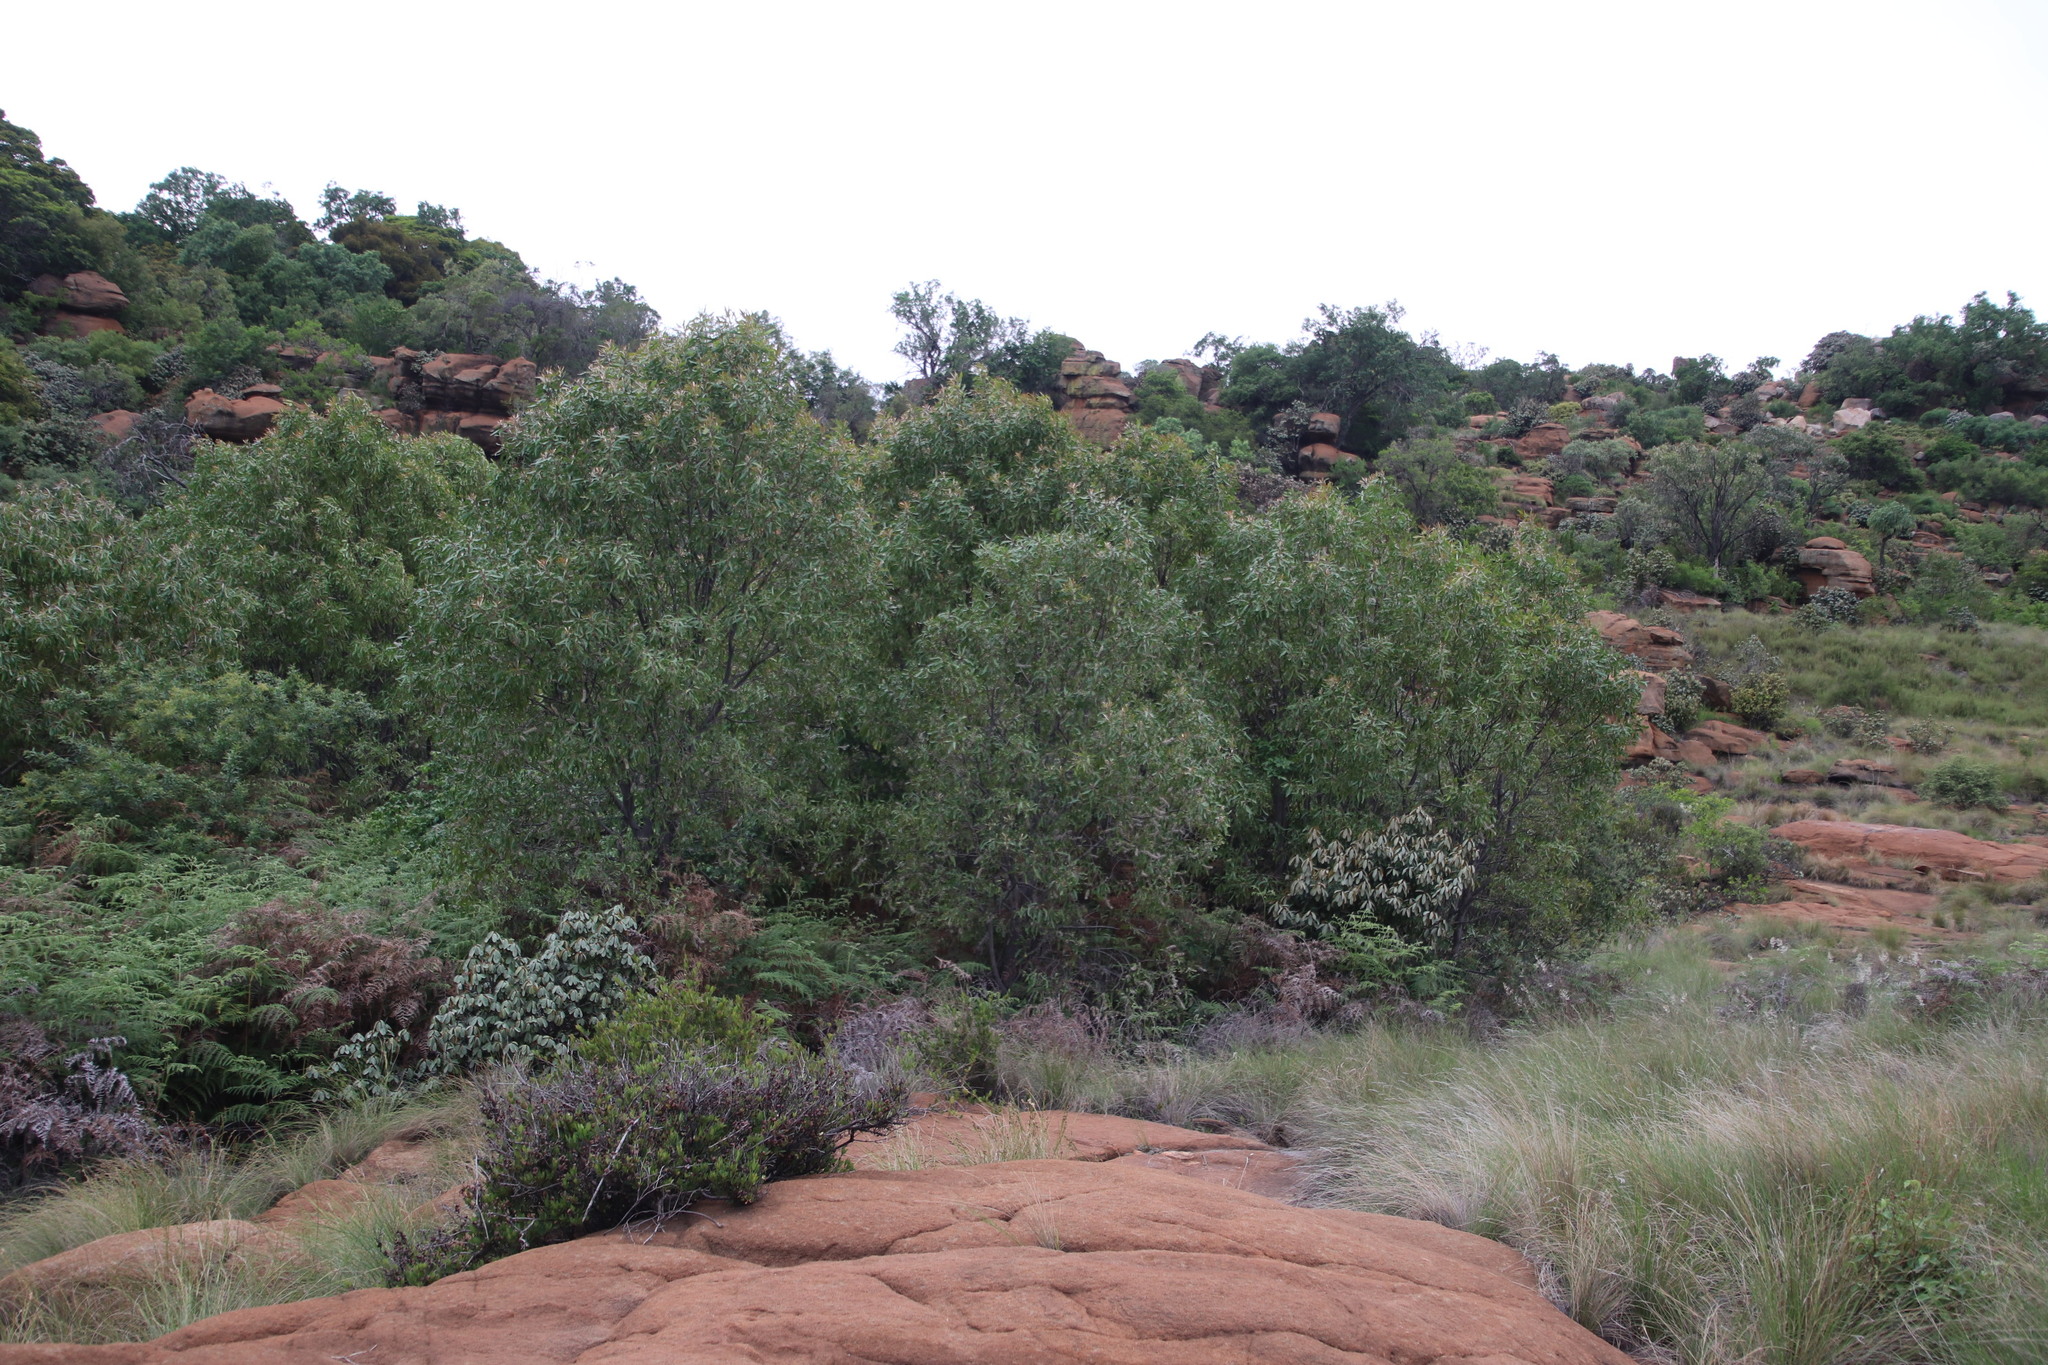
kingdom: Plantae
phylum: Tracheophyta
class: Magnoliopsida
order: Proteales
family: Proteaceae
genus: Faurea
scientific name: Faurea saligna
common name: African bean
